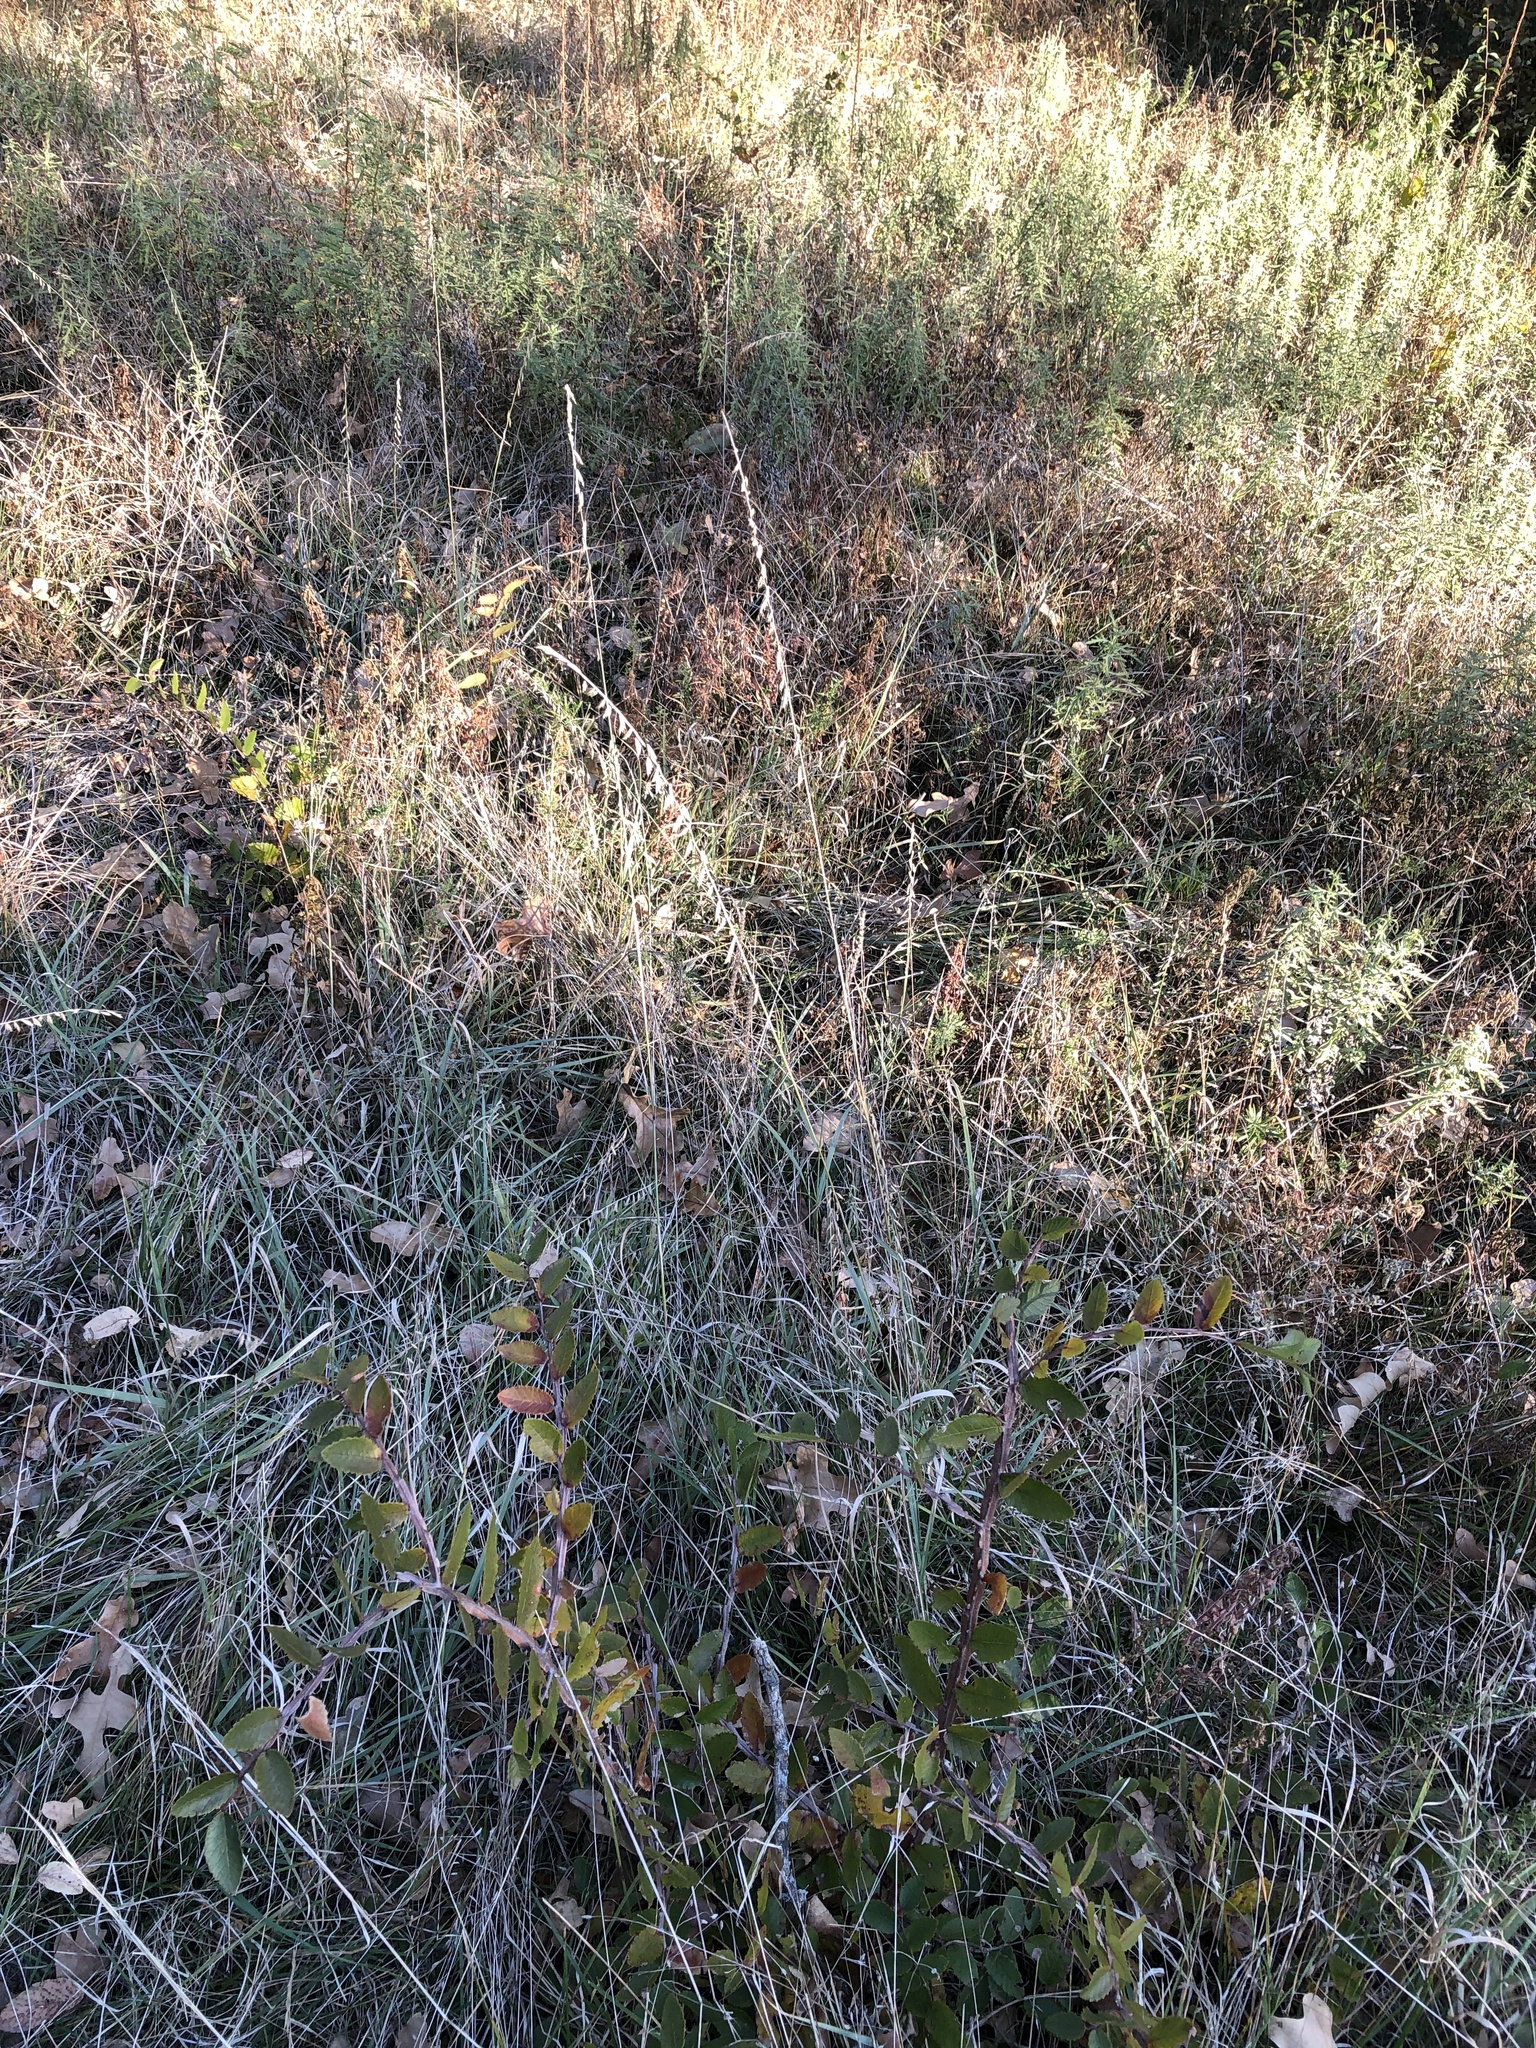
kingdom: Plantae
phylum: Tracheophyta
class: Liliopsida
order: Poales
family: Poaceae
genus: Bouteloua
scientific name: Bouteloua curtipendula
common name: Side-oats grama
